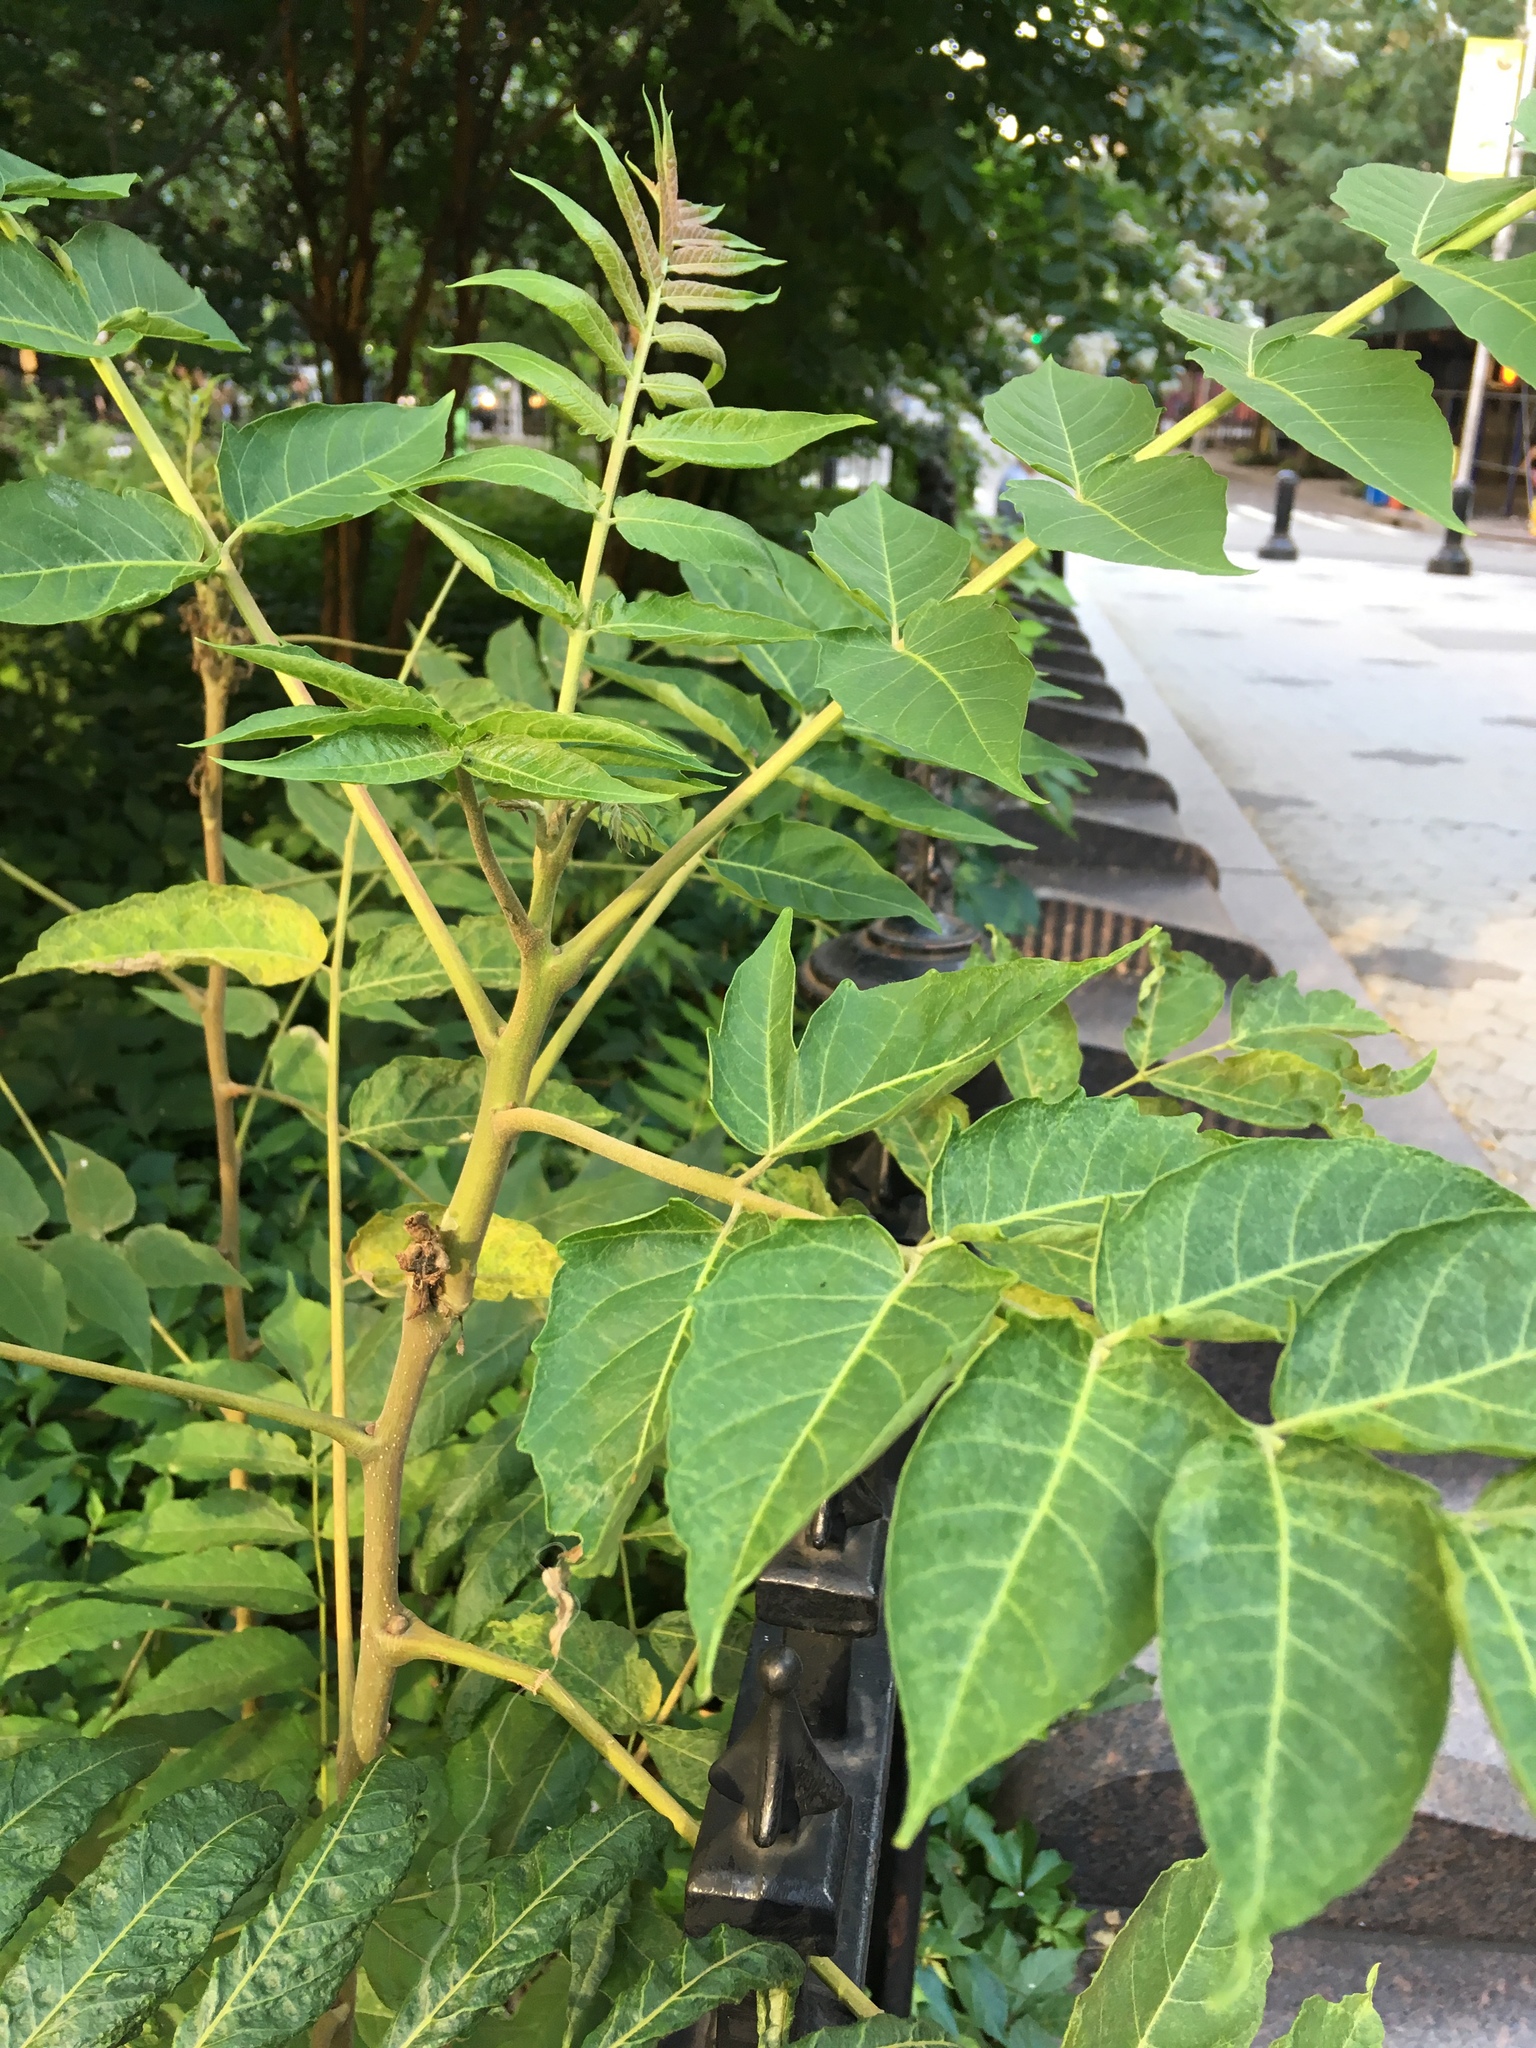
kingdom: Plantae
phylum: Tracheophyta
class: Magnoliopsida
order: Sapindales
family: Simaroubaceae
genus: Ailanthus
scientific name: Ailanthus altissima
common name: Tree-of-heaven
